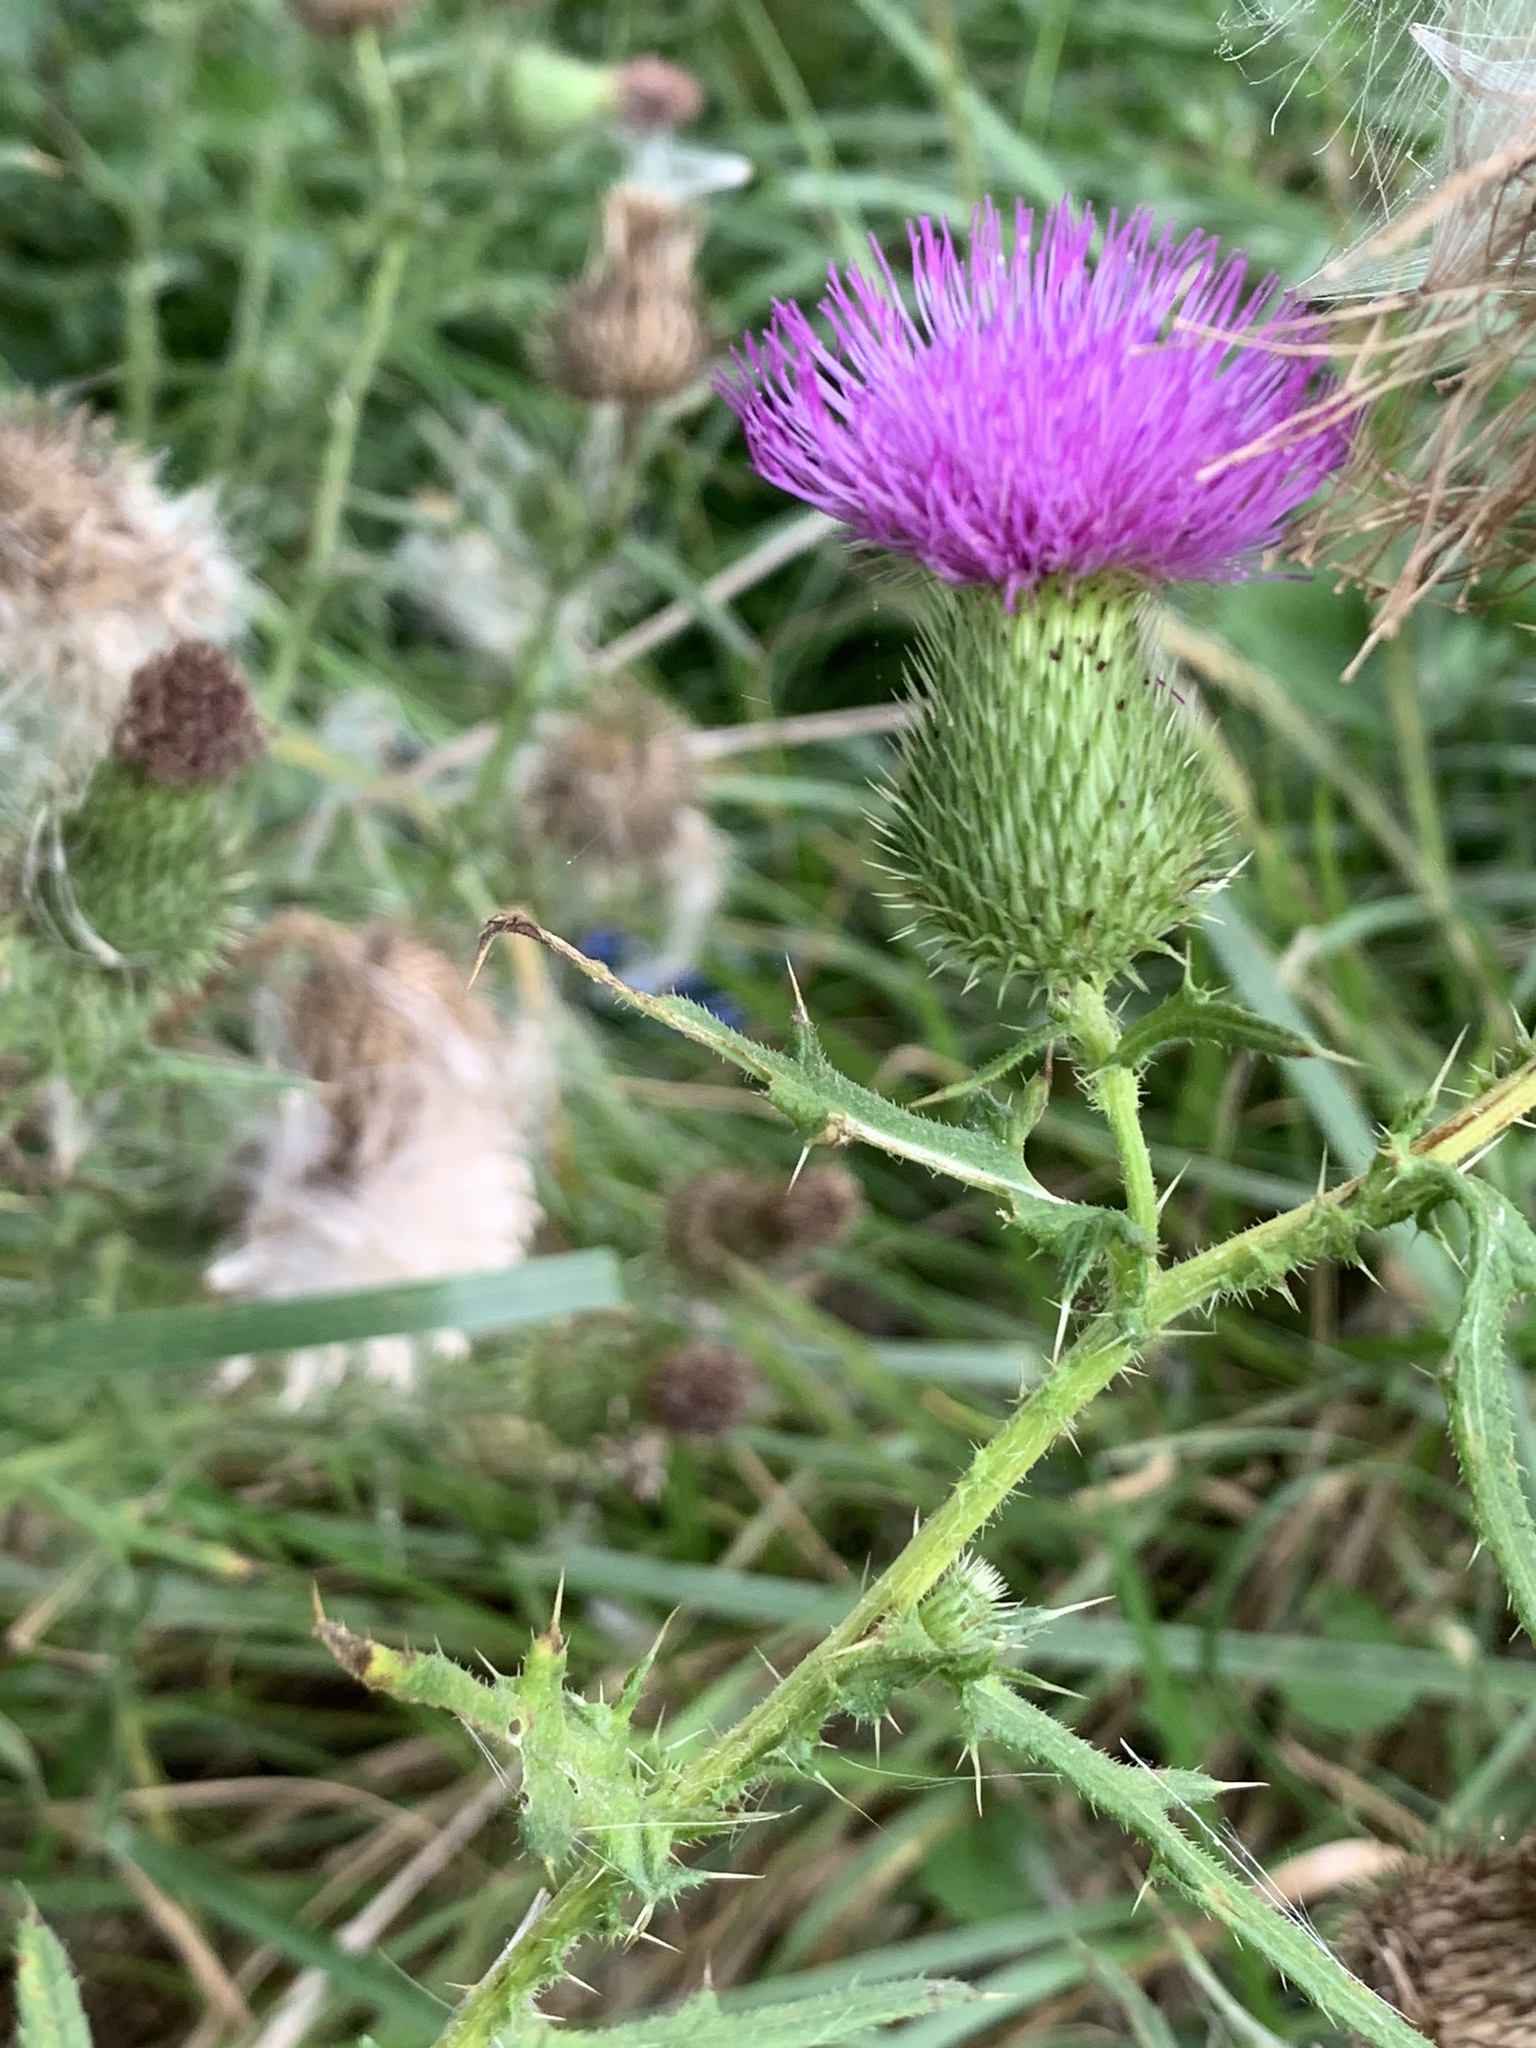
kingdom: Plantae
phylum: Tracheophyta
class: Magnoliopsida
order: Asterales
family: Asteraceae
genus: Cirsium
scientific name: Cirsium vulgare
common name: Bull thistle
